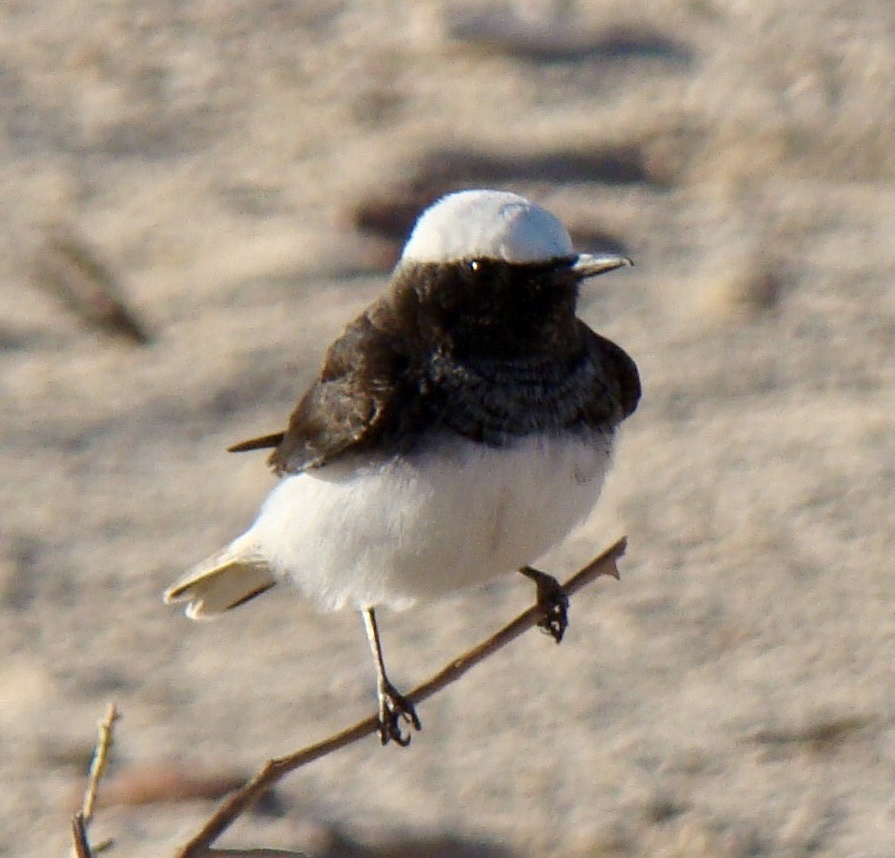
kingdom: Animalia
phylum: Chordata
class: Aves
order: Passeriformes
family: Muscicapidae
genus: Oenanthe
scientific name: Oenanthe monacha
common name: Hooded wheatear
